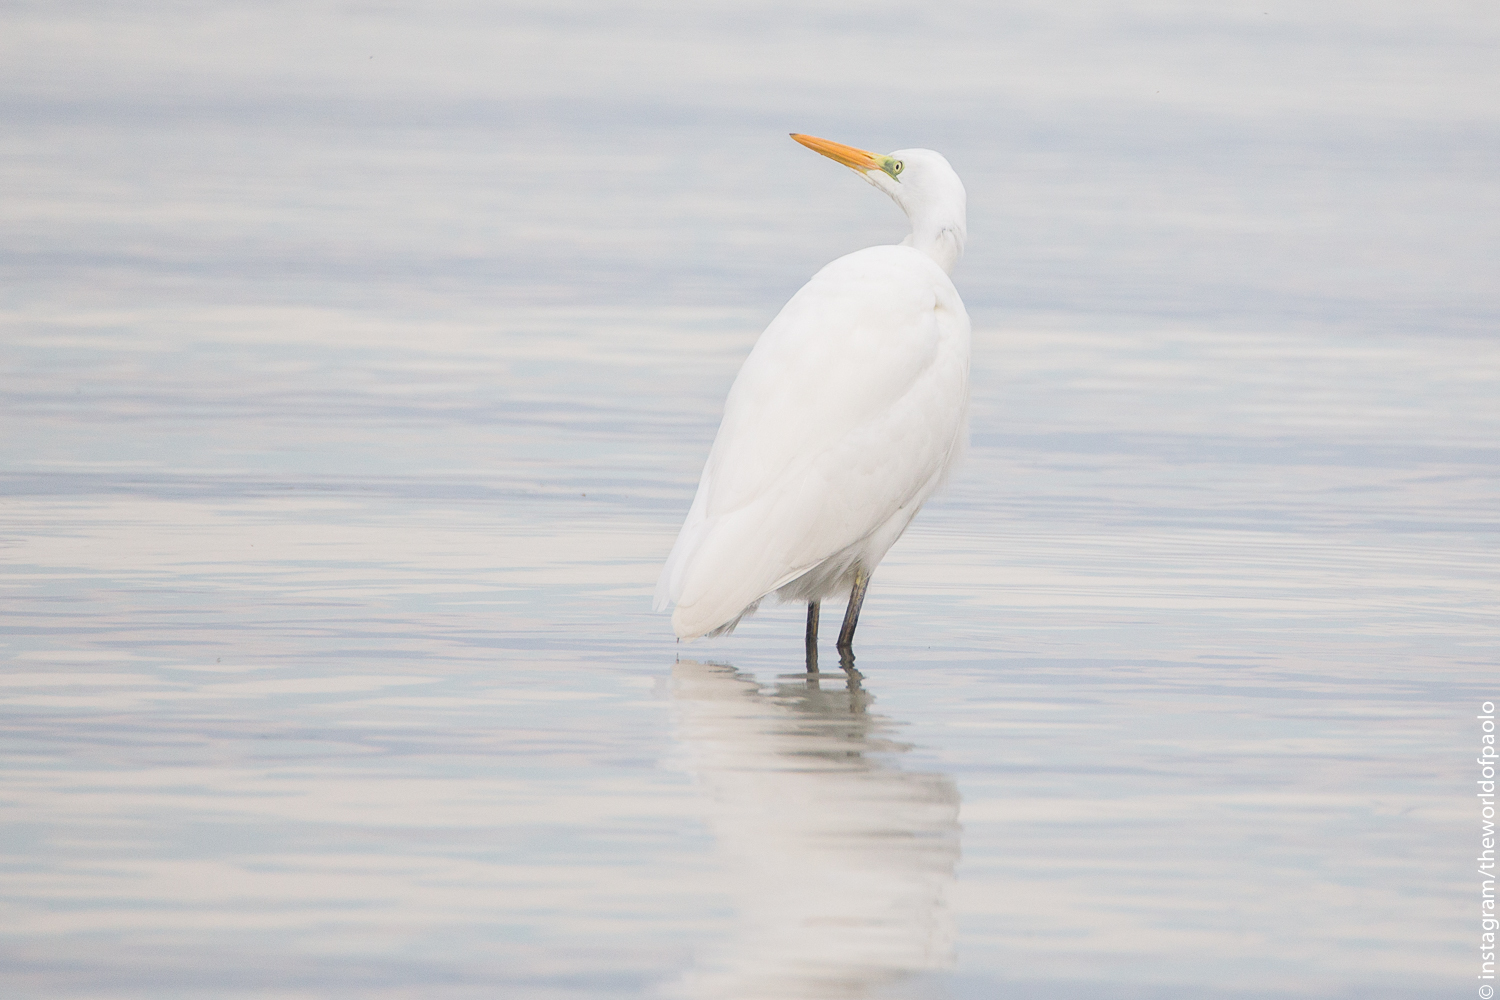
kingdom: Animalia
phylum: Chordata
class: Aves
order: Pelecaniformes
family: Ardeidae
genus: Ardea
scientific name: Ardea alba
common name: Great egret
